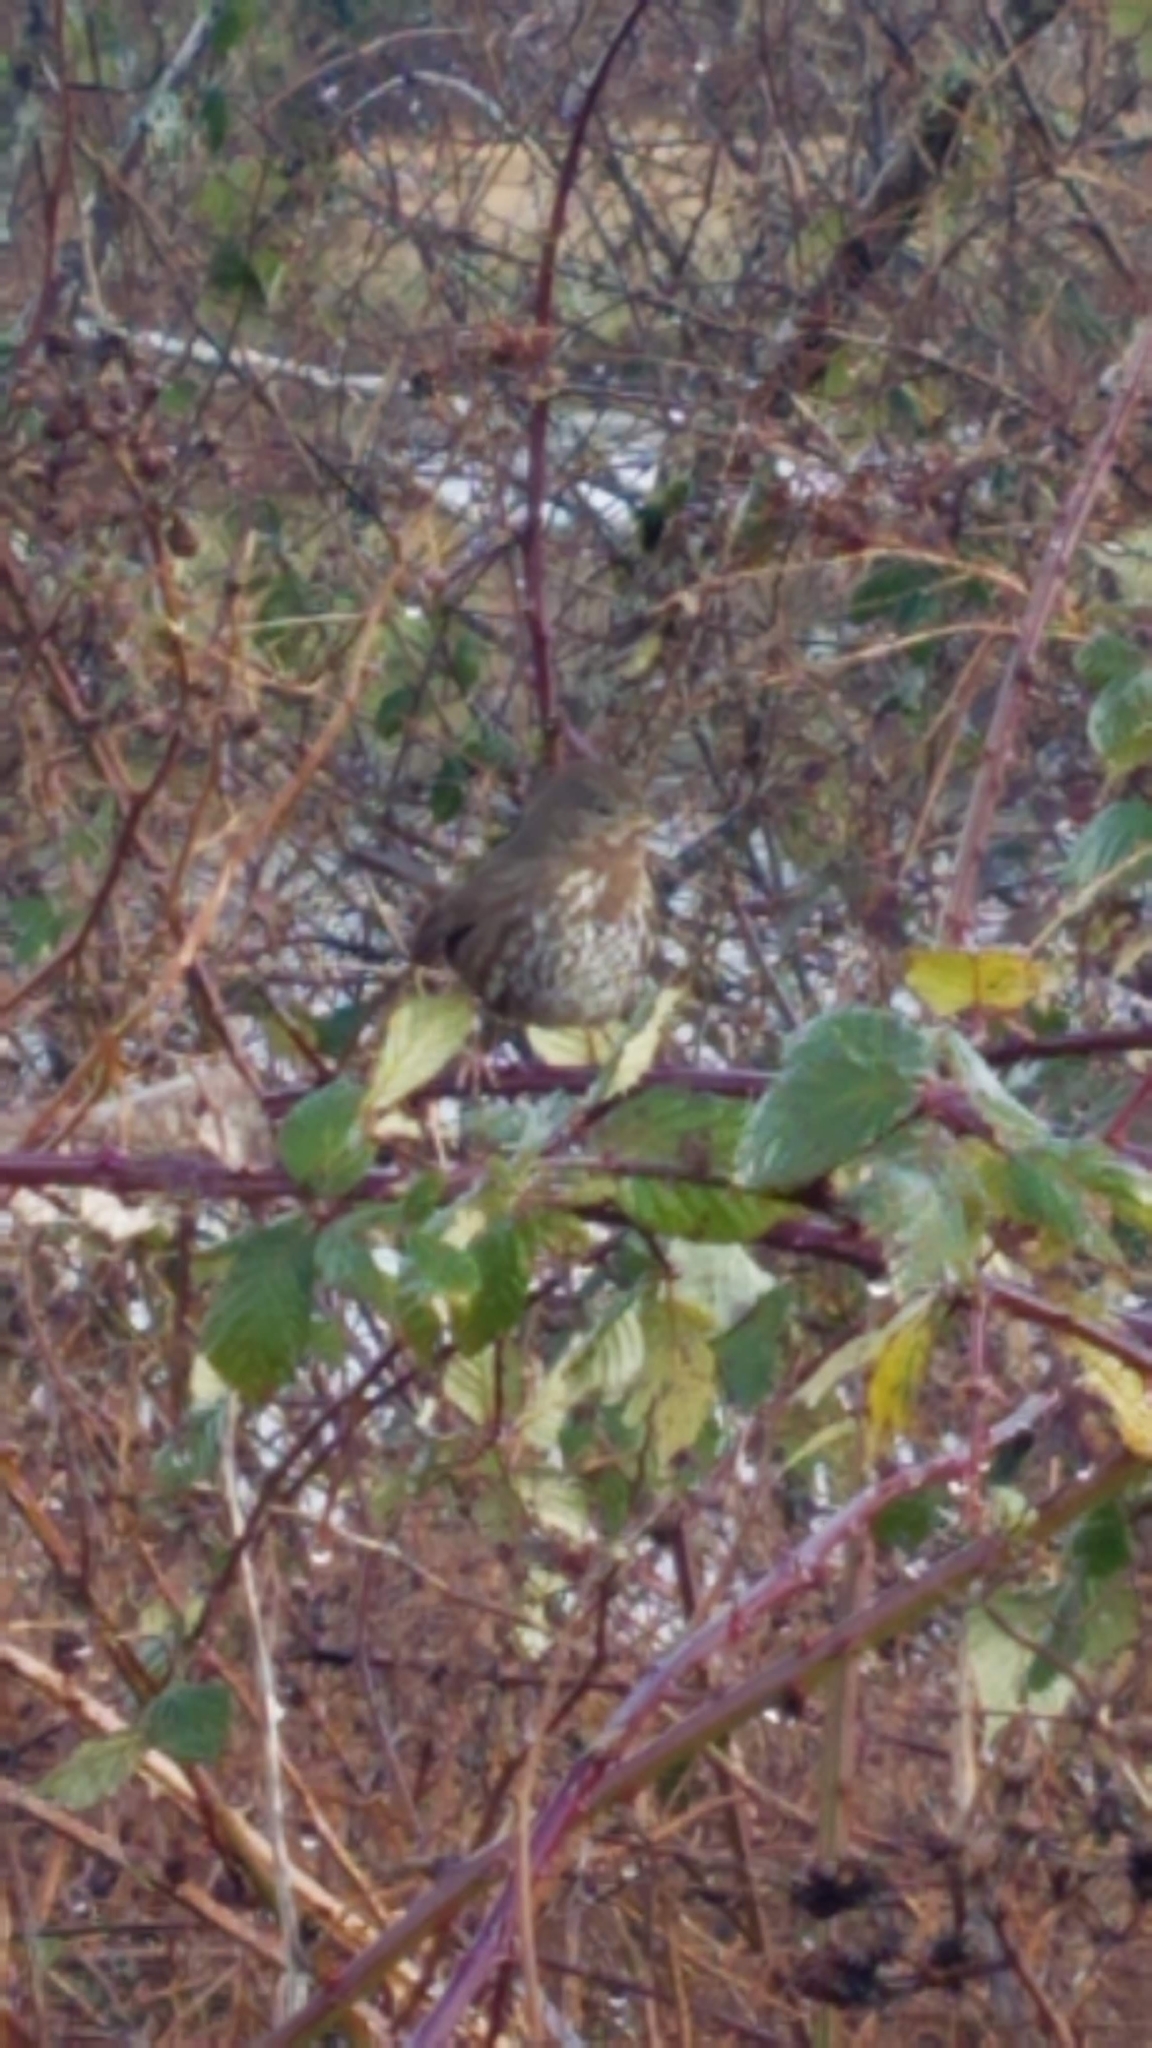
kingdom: Animalia
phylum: Chordata
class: Aves
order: Passeriformes
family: Passerellidae
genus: Passerella
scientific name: Passerella iliaca
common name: Fox sparrow
